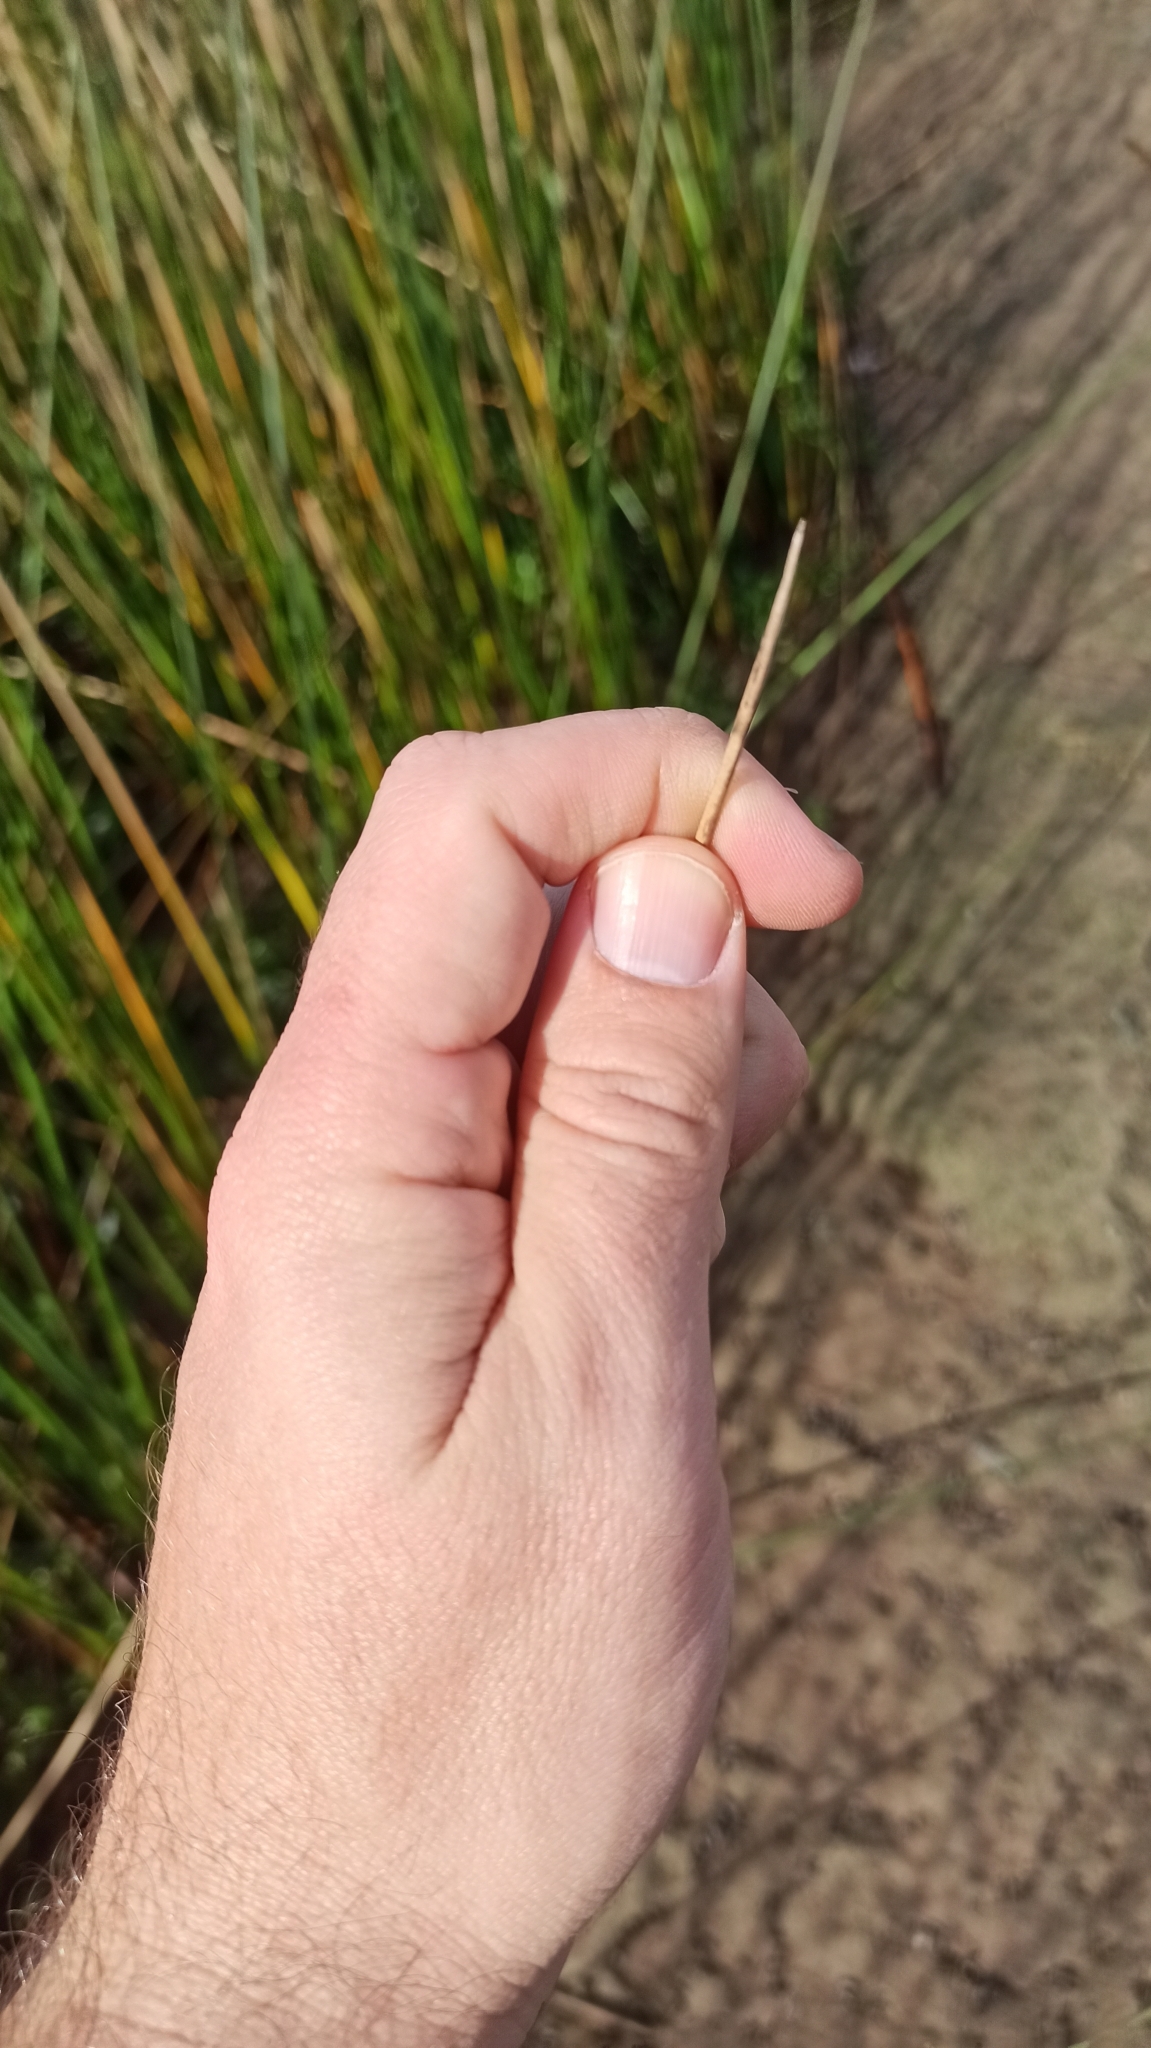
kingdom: Plantae
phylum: Tracheophyta
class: Liliopsida
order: Poales
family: Cyperaceae
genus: Schoenoplectus
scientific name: Schoenoplectus californicus
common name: California bulrush
